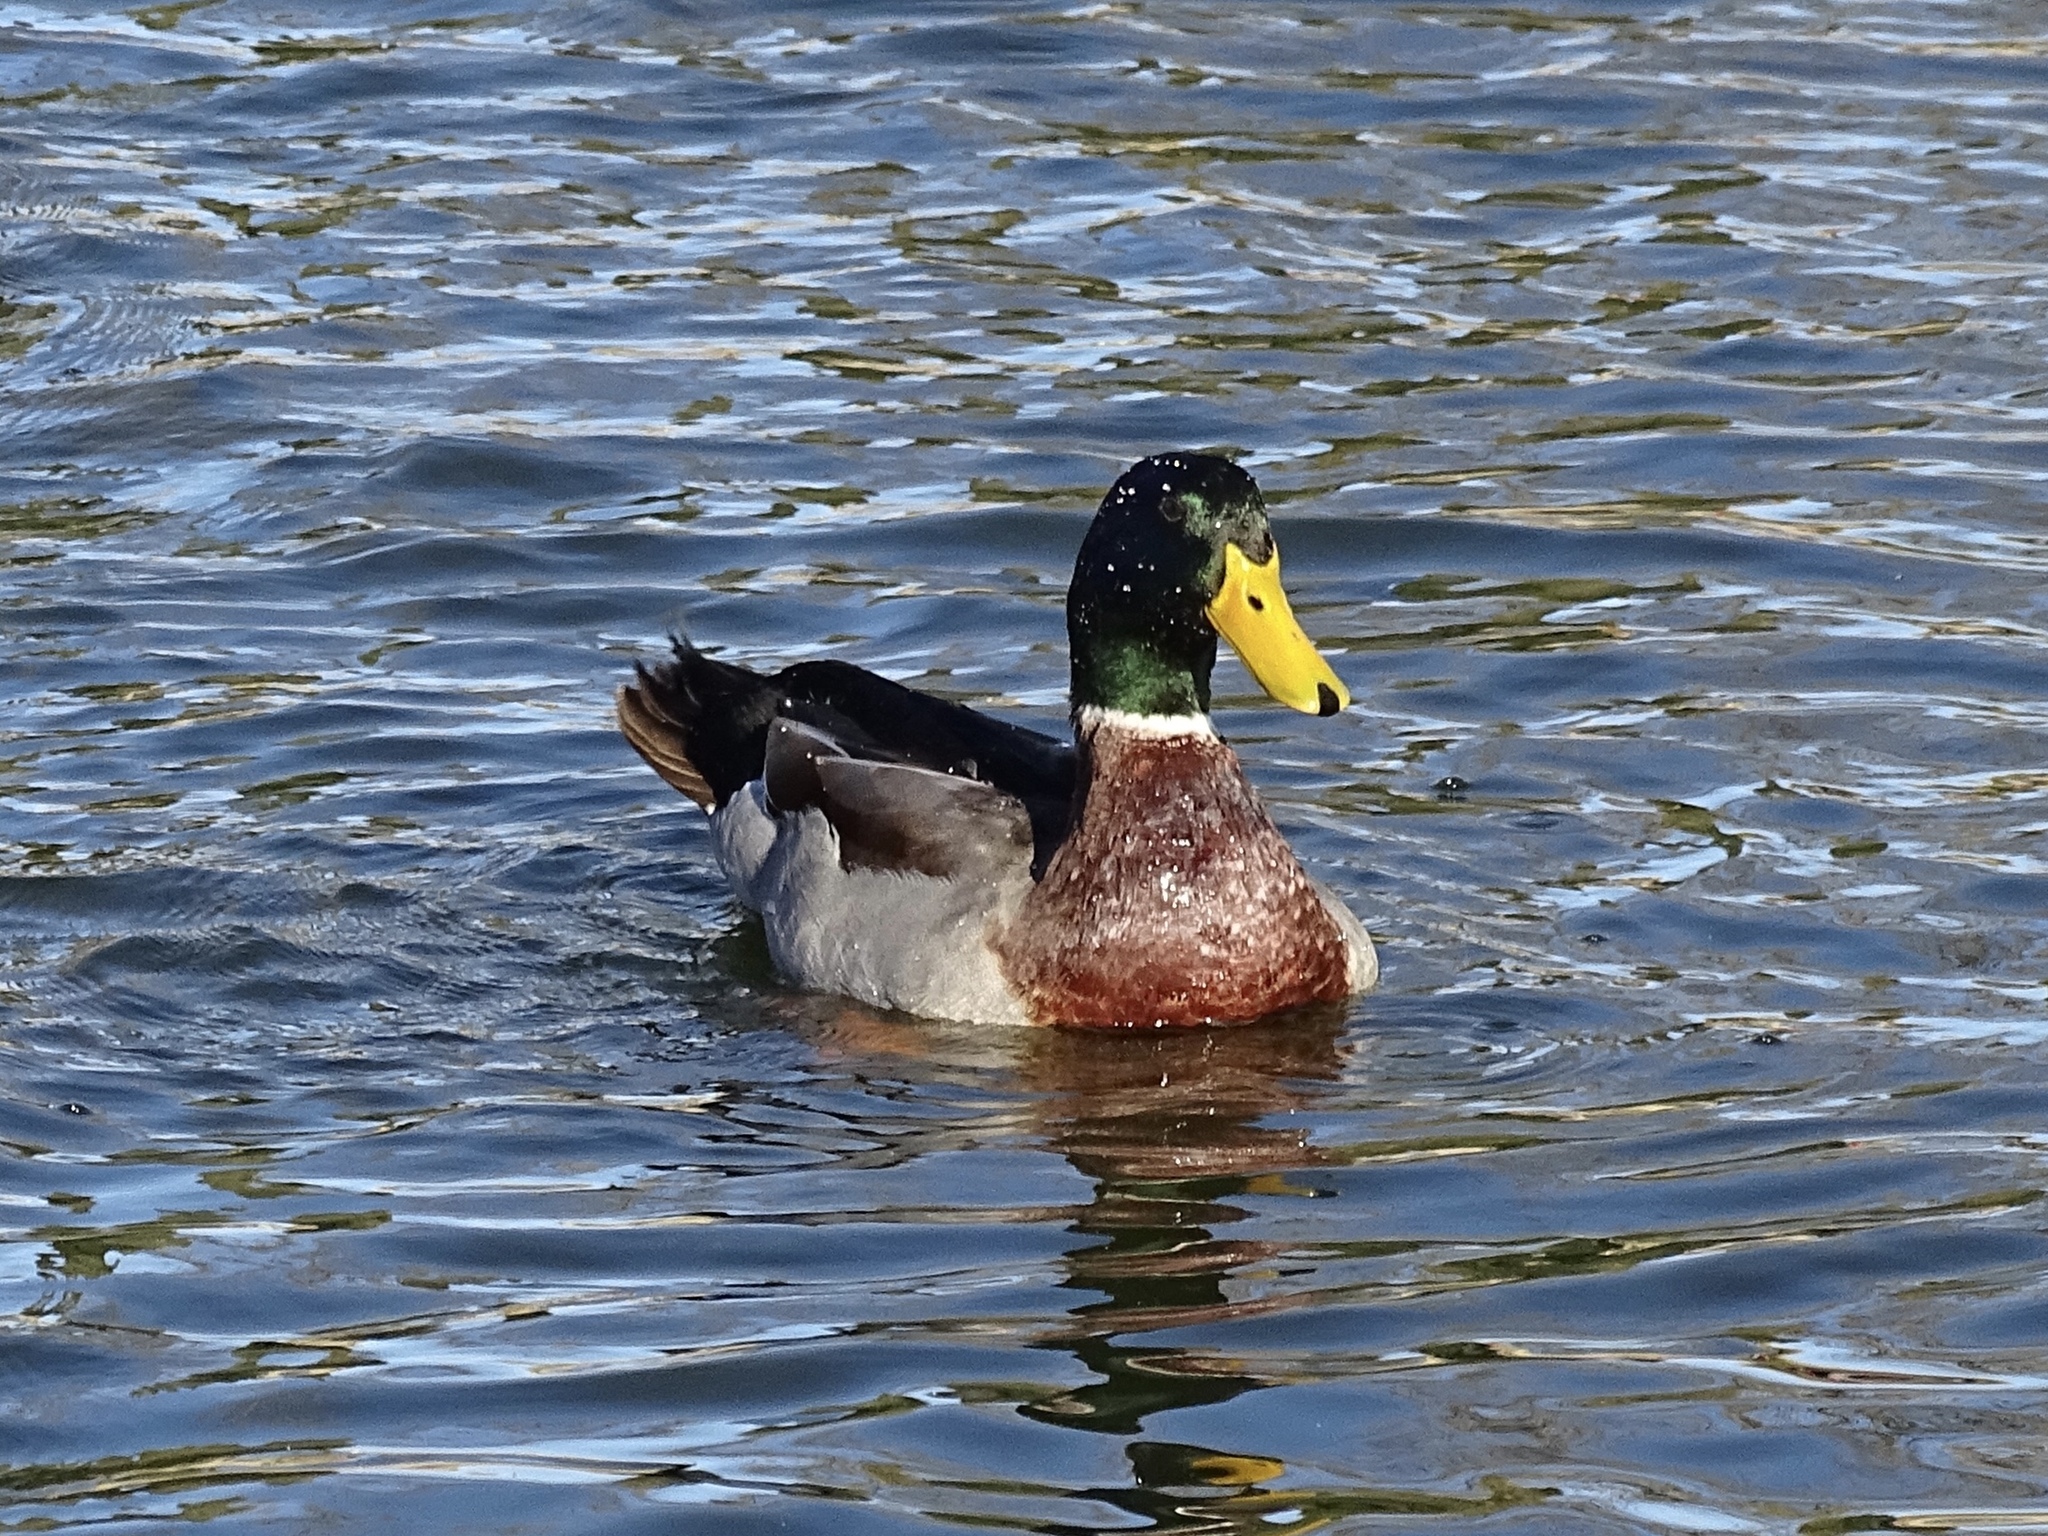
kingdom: Animalia
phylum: Chordata
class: Aves
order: Anseriformes
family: Anatidae
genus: Anas
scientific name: Anas platyrhynchos
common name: Mallard
